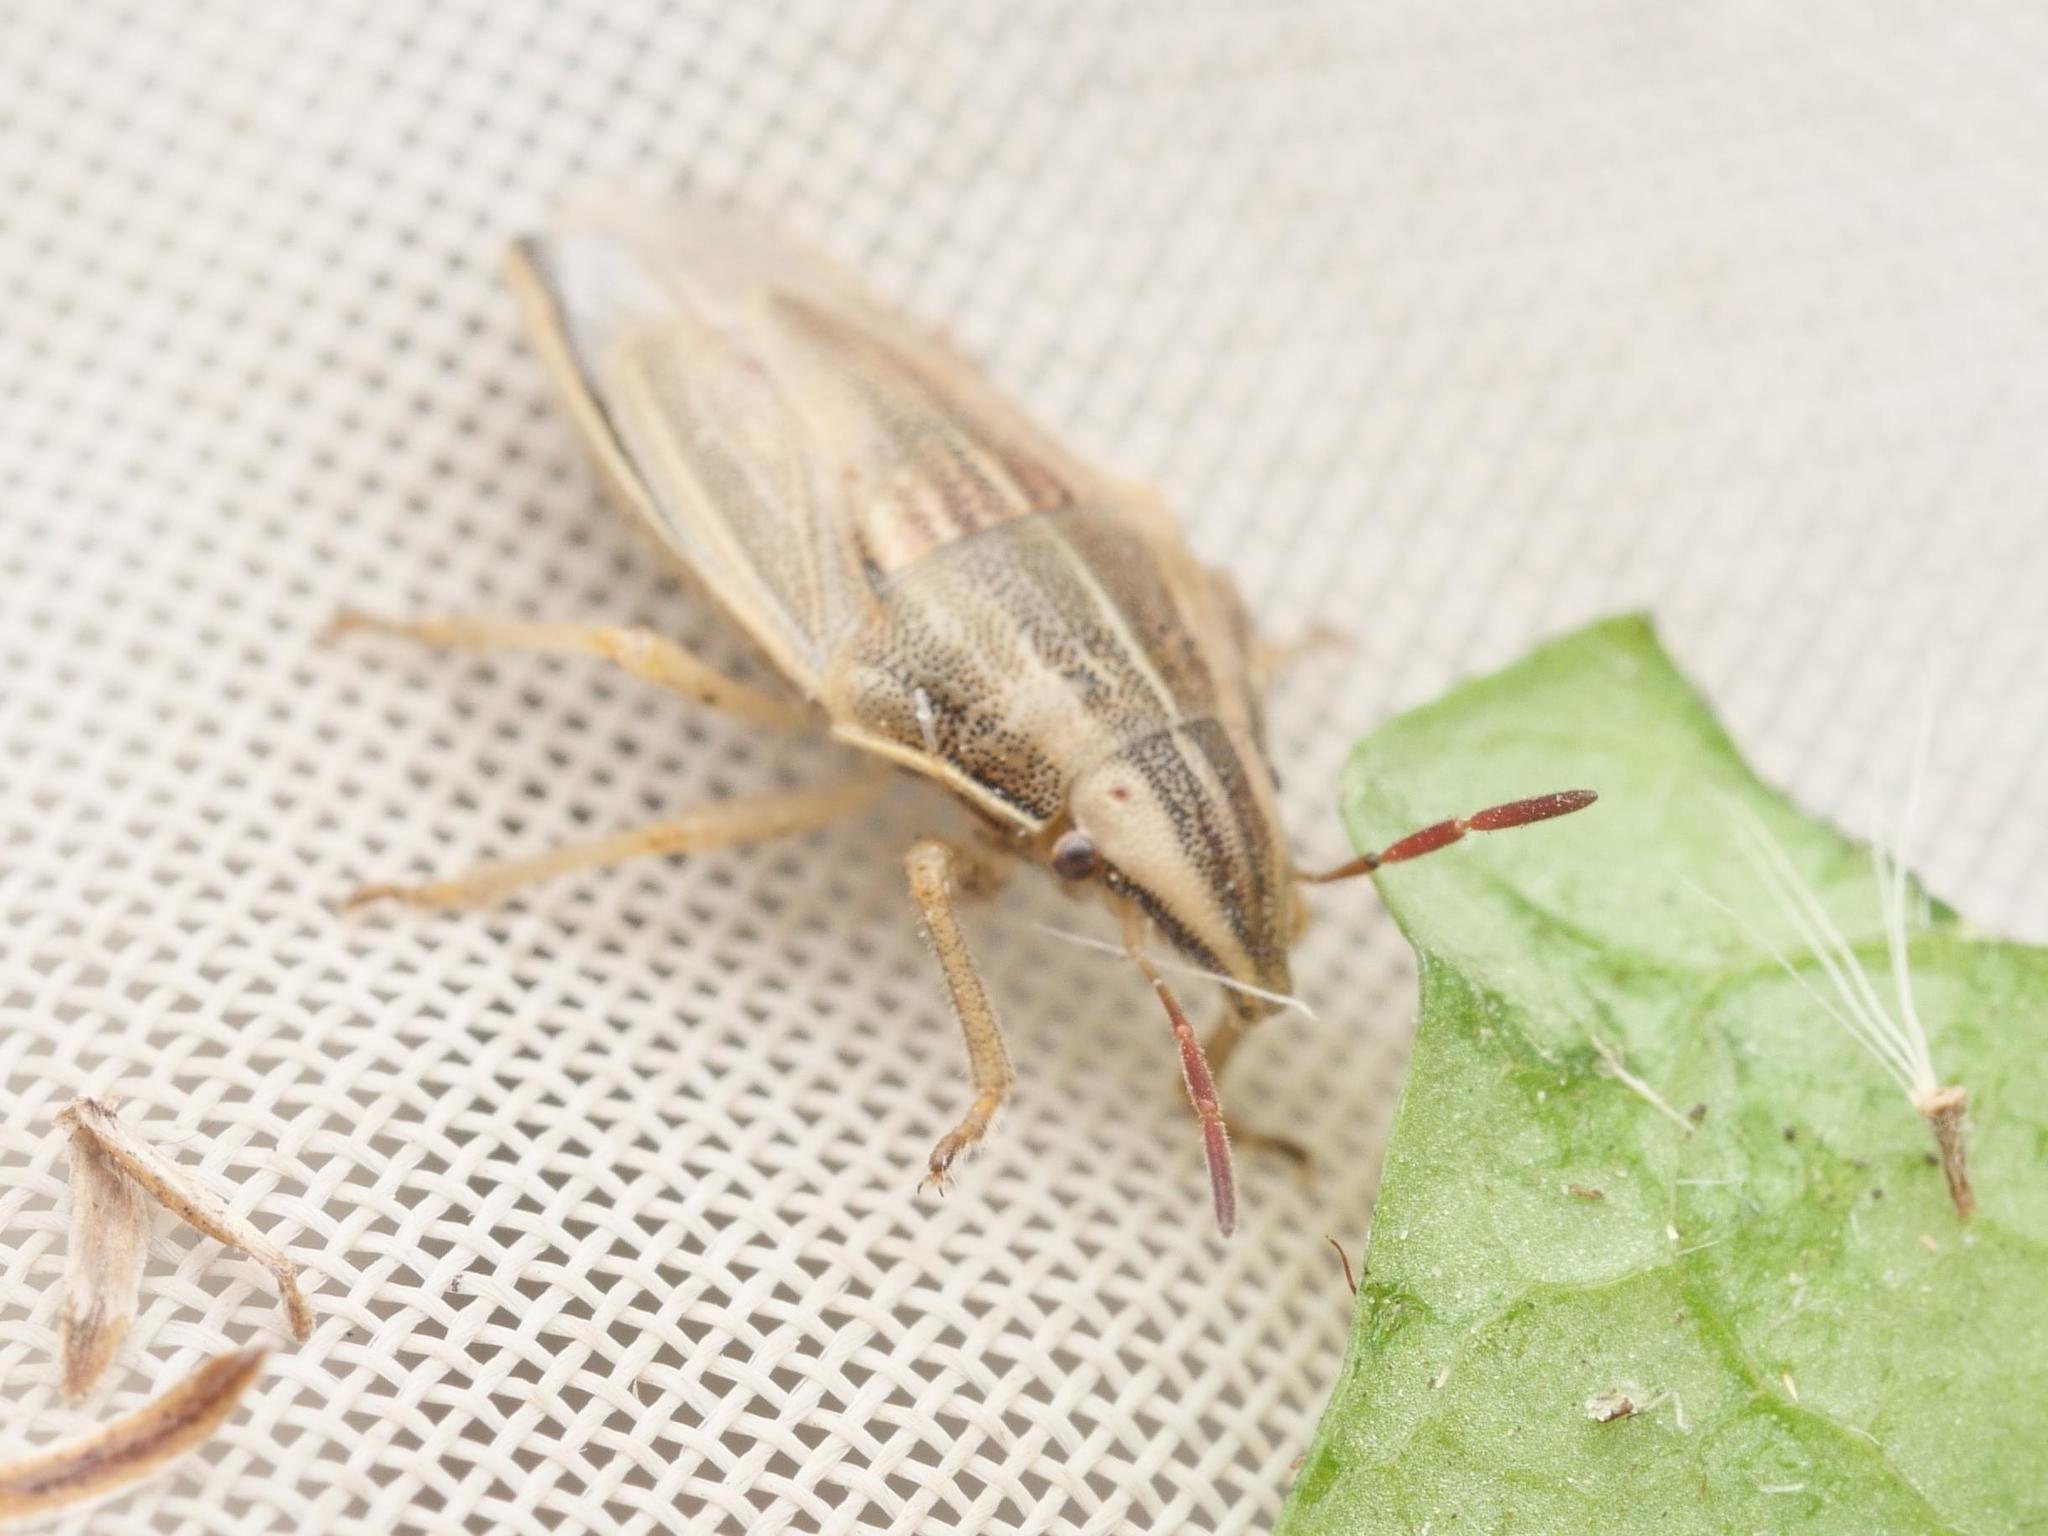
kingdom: Animalia
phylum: Arthropoda
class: Insecta
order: Hemiptera
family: Pentatomidae
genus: Aelia
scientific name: Aelia acuminata
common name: Bishop's mitre
